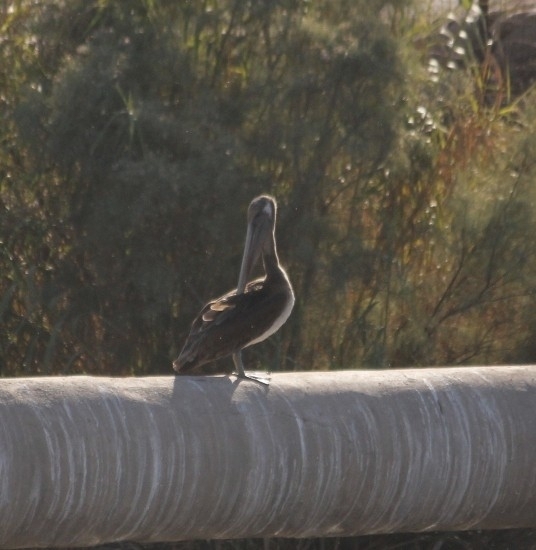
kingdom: Animalia
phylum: Chordata
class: Aves
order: Pelecaniformes
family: Pelecanidae
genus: Pelecanus
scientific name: Pelecanus occidentalis
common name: Brown pelican
